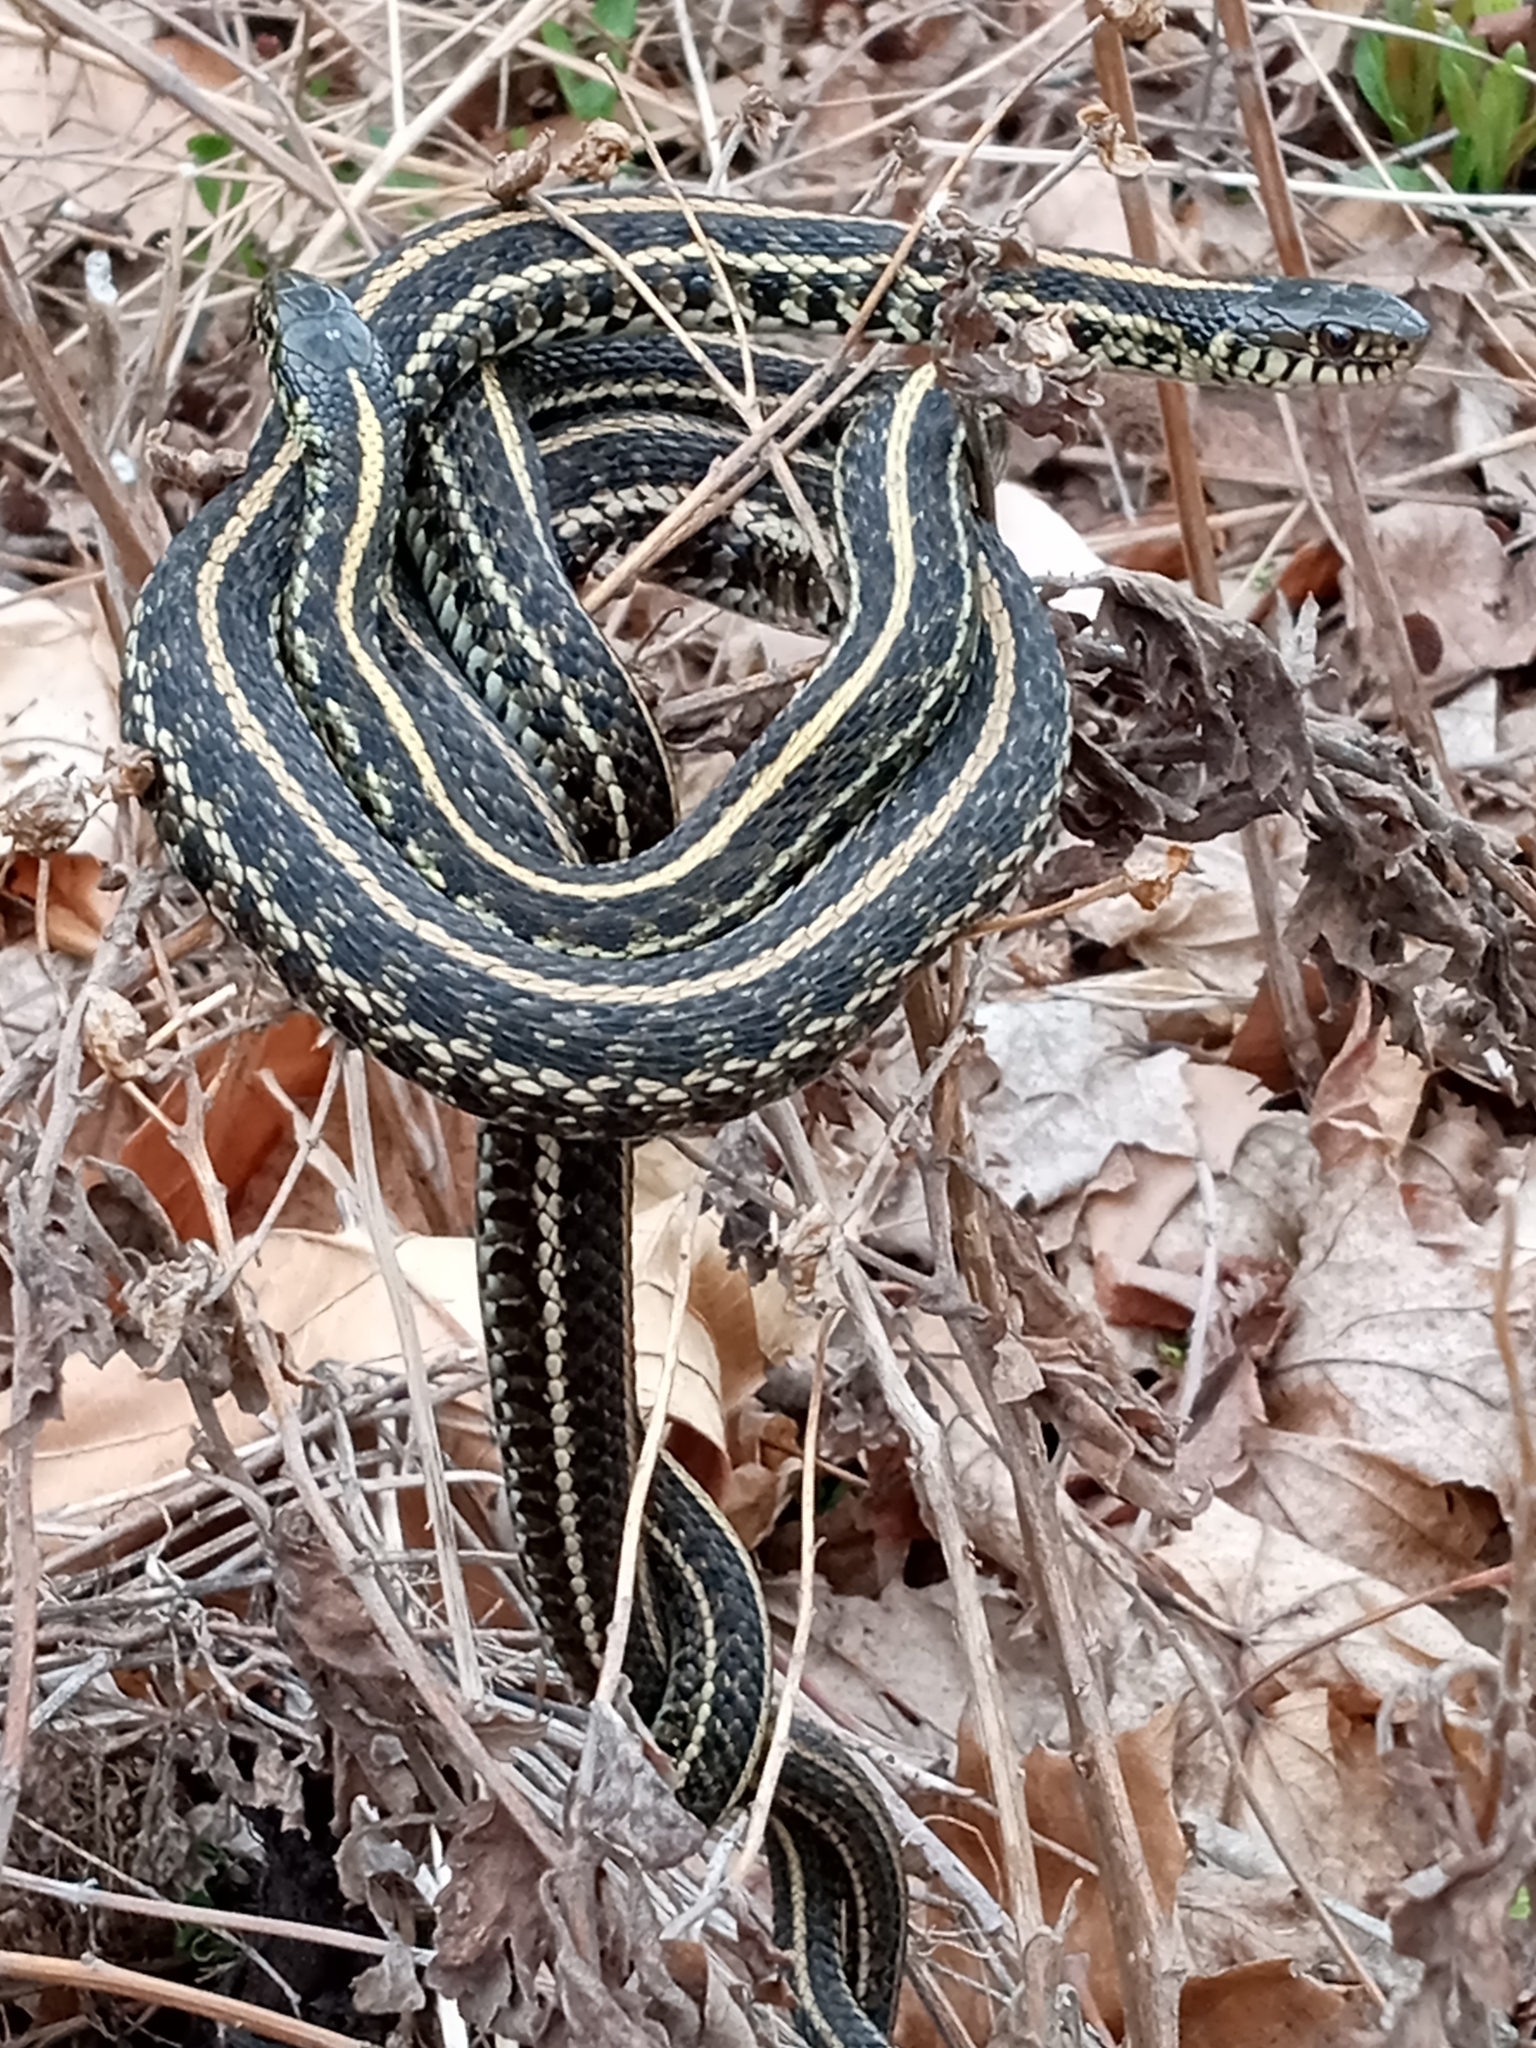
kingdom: Animalia
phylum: Chordata
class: Squamata
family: Colubridae
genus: Thamnophis
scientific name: Thamnophis radix
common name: Plains garter snake
